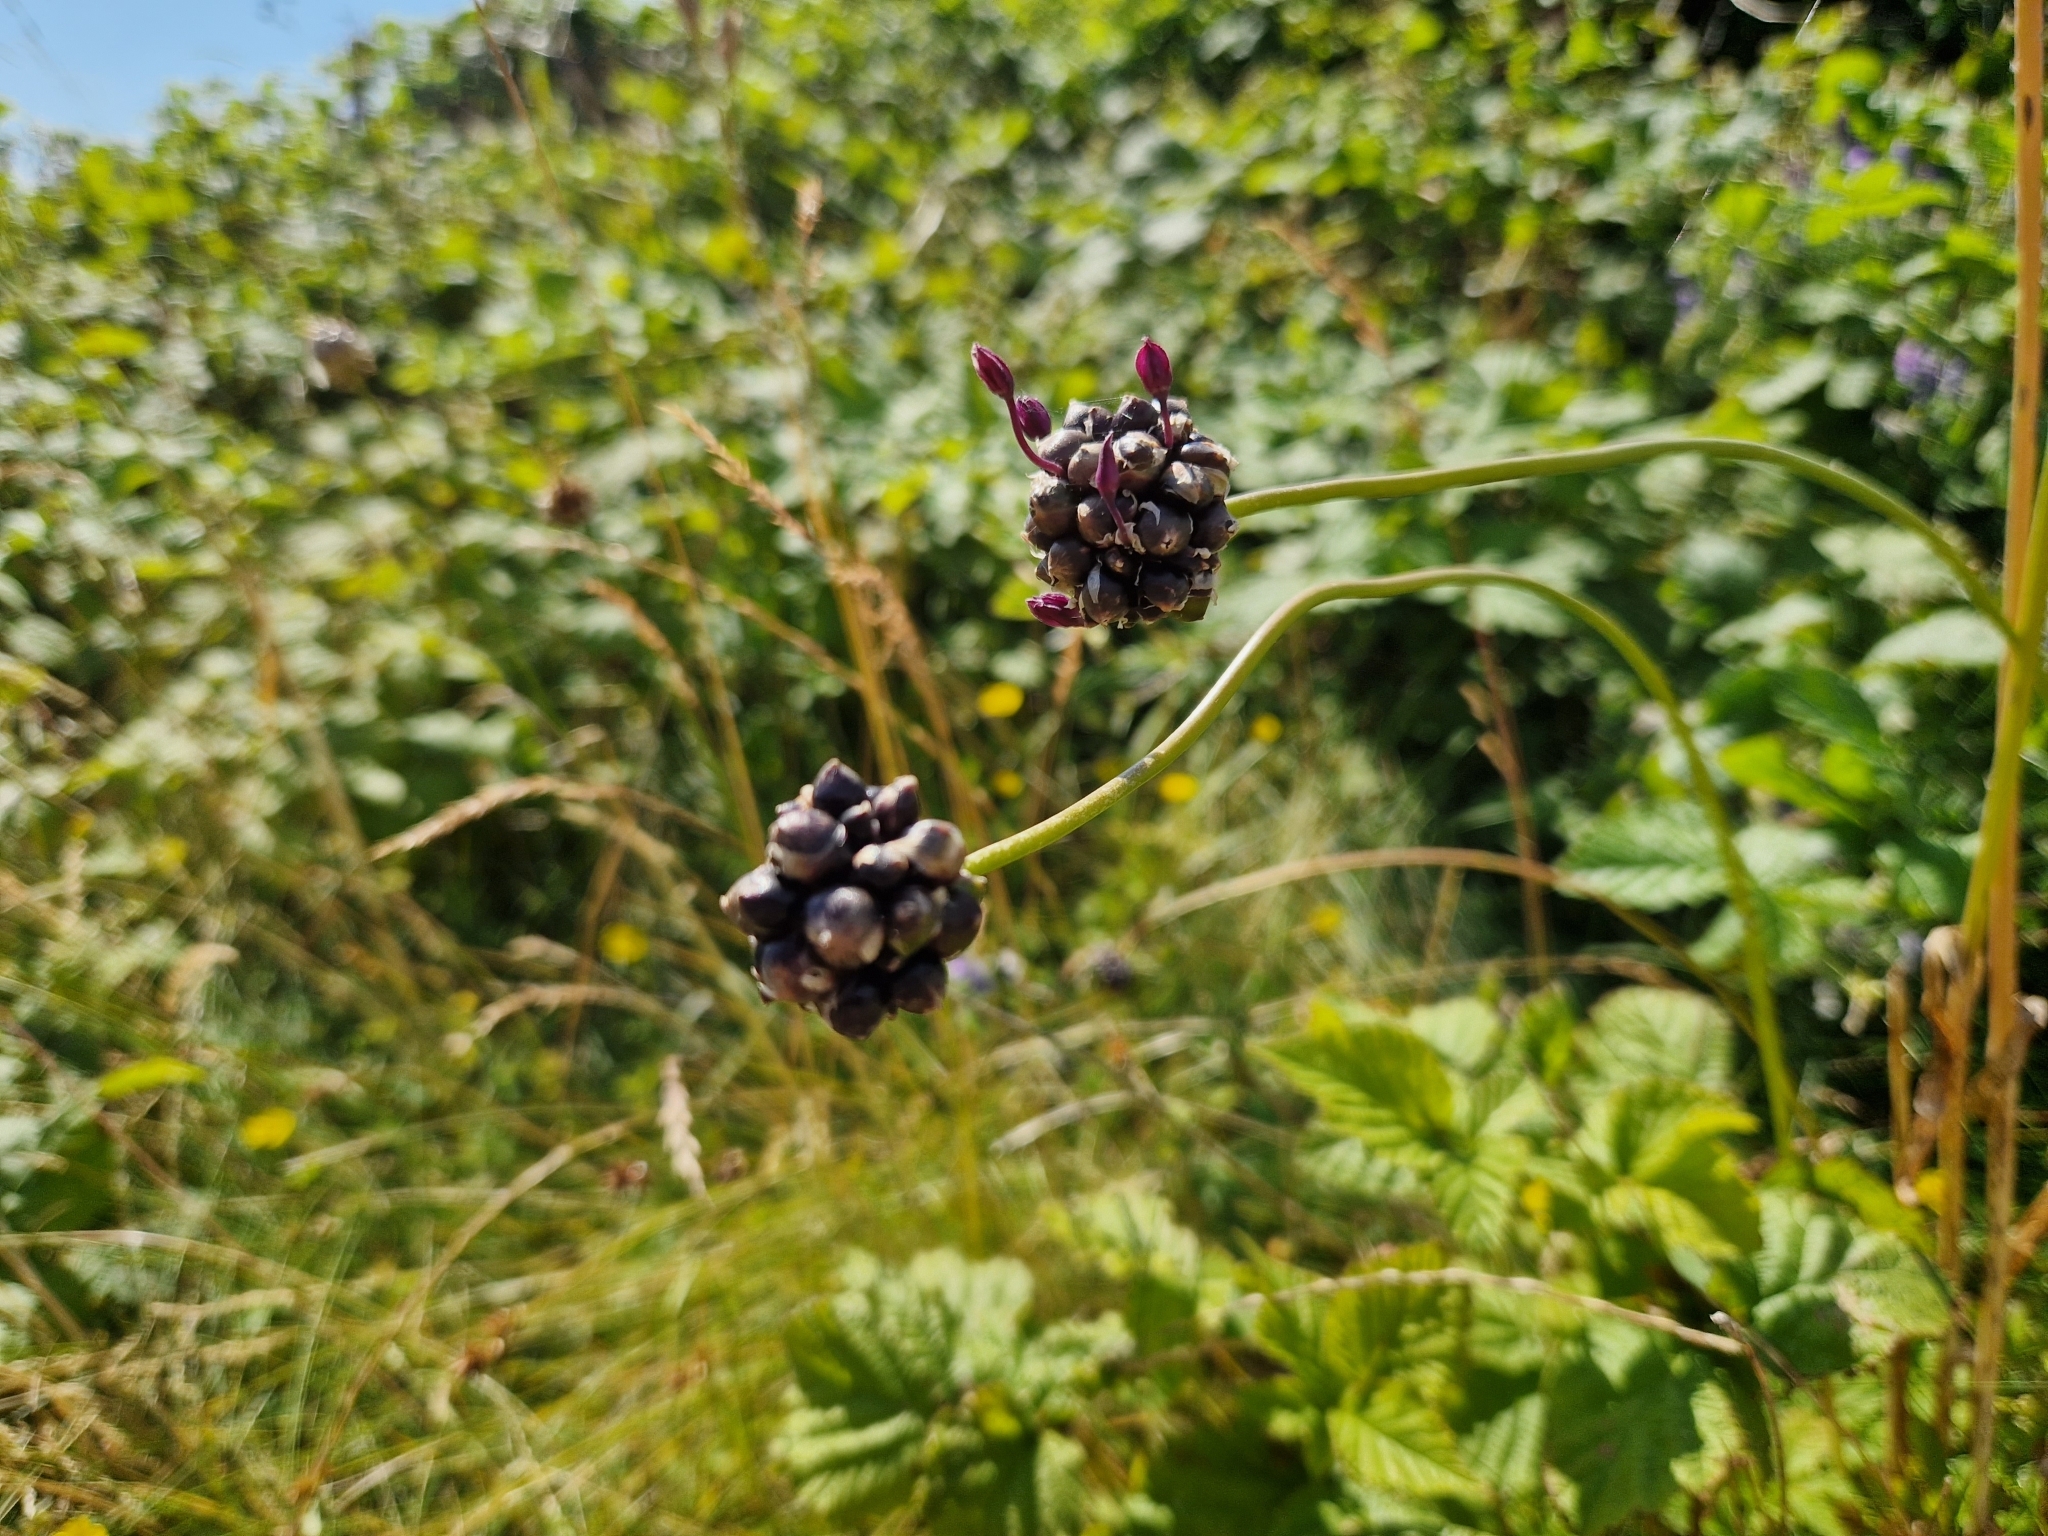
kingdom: Plantae
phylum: Tracheophyta
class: Liliopsida
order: Asparagales
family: Amaryllidaceae
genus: Allium
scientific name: Allium scorodoprasum
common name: Sand leek
